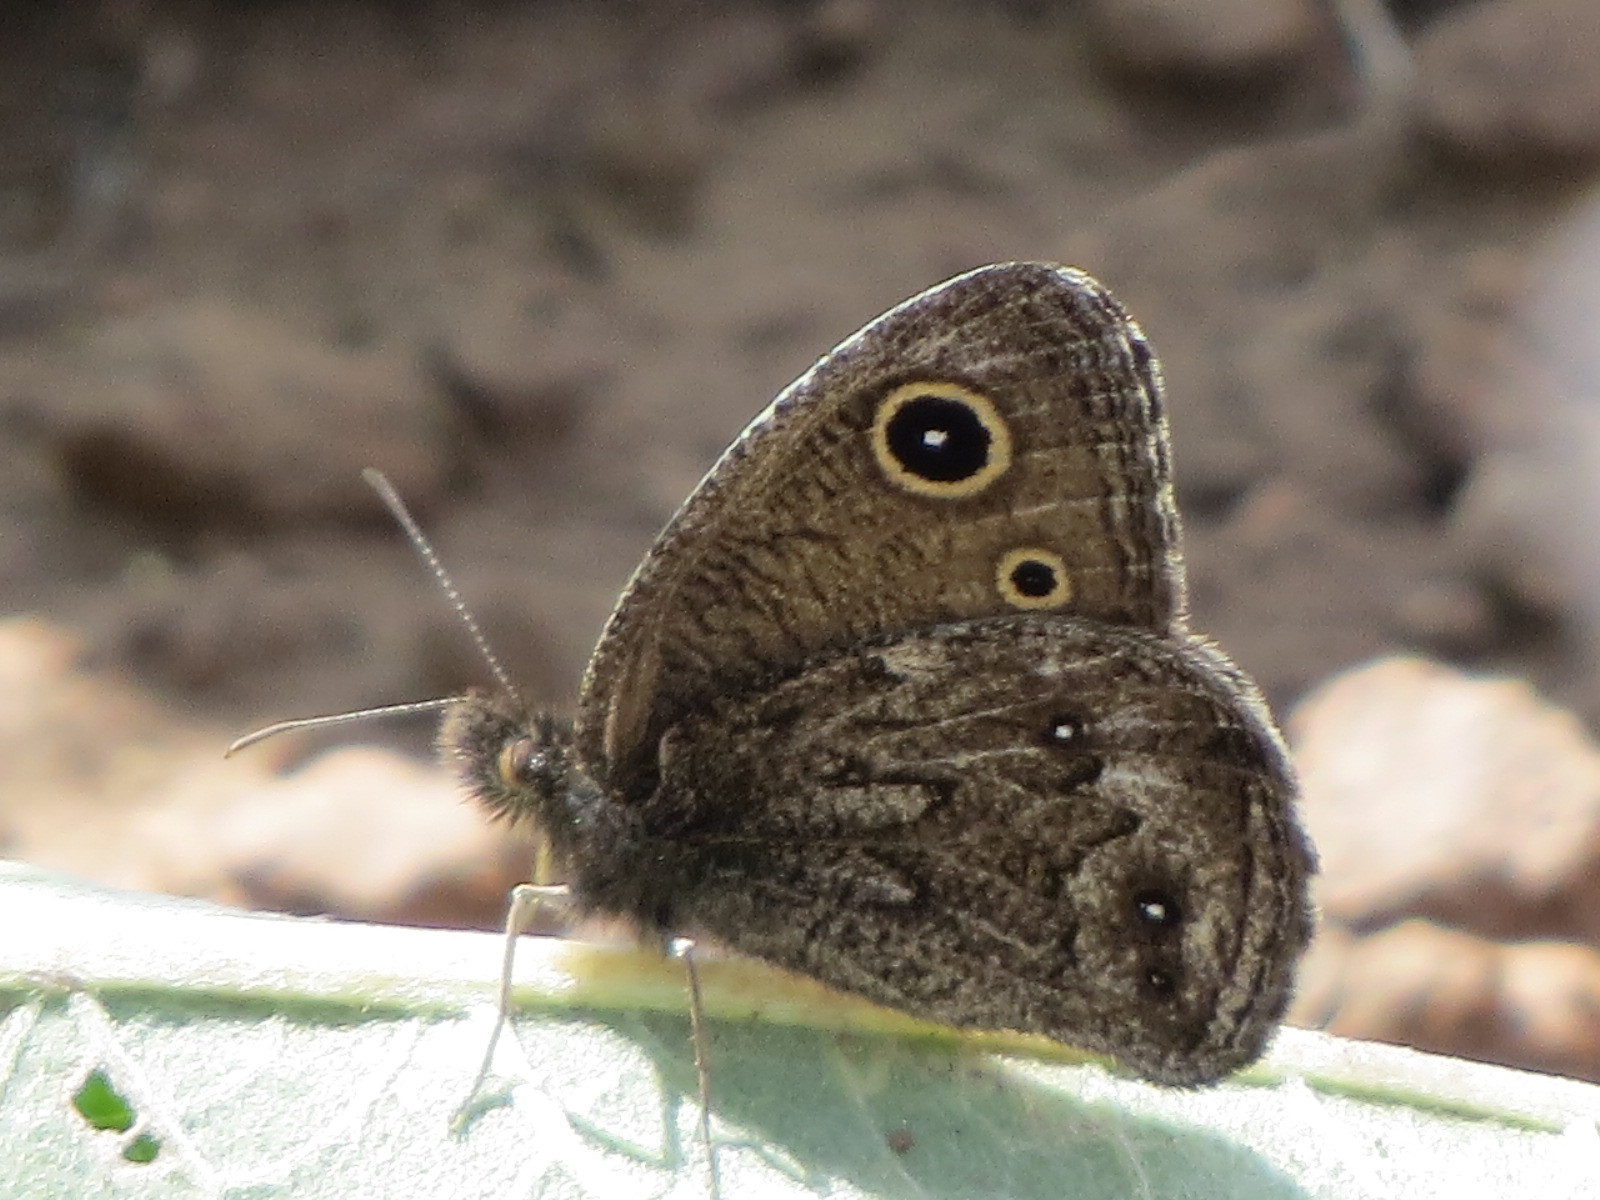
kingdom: Animalia
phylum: Arthropoda
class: Insecta
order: Lepidoptera
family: Nymphalidae
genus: Cercyonis
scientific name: Cercyonis oetus
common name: Small wood-nymph
